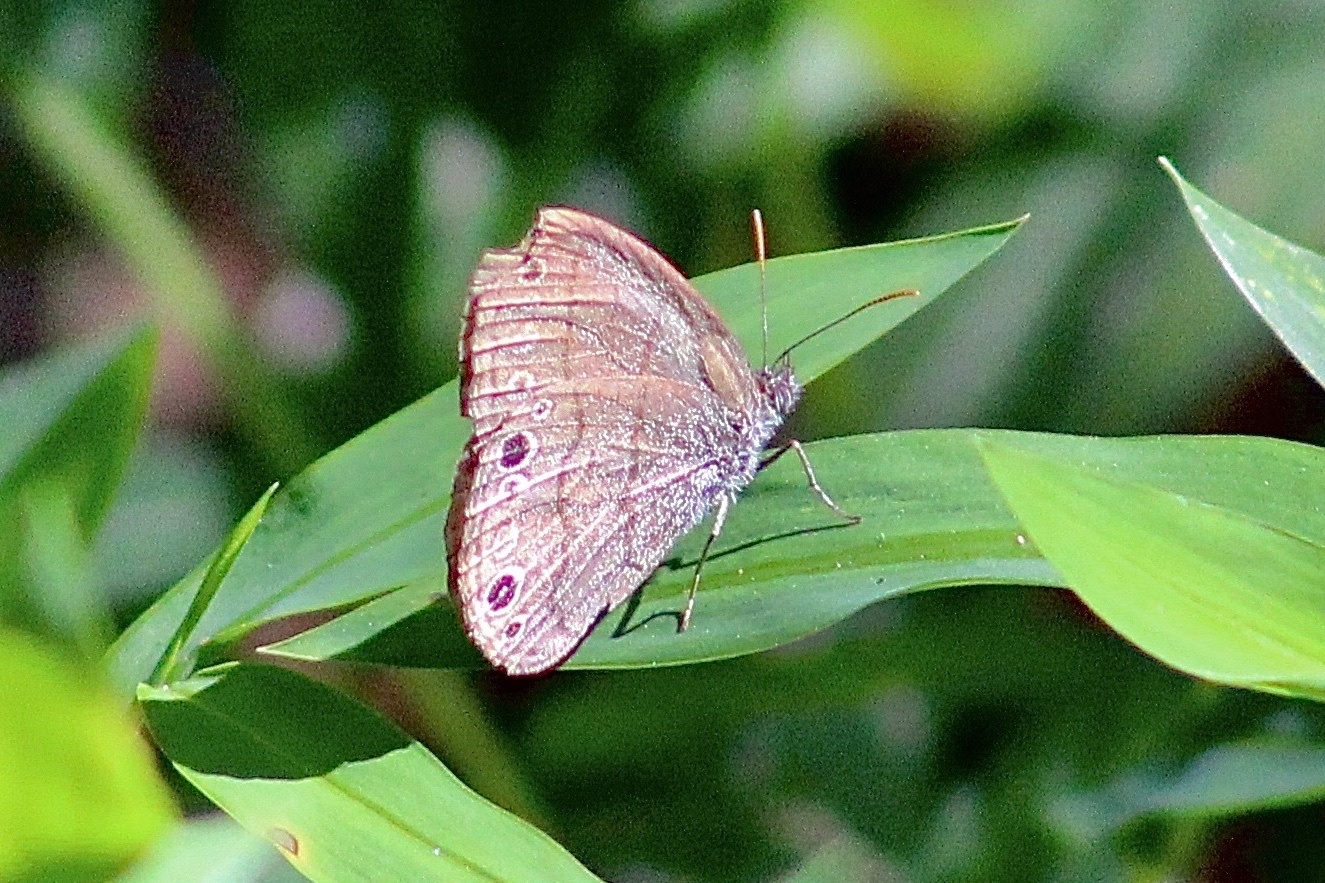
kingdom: Animalia
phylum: Arthropoda
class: Insecta
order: Lepidoptera
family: Nymphalidae
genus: Hermeuptychia
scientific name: Hermeuptychia hermes
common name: Hermes satyr
